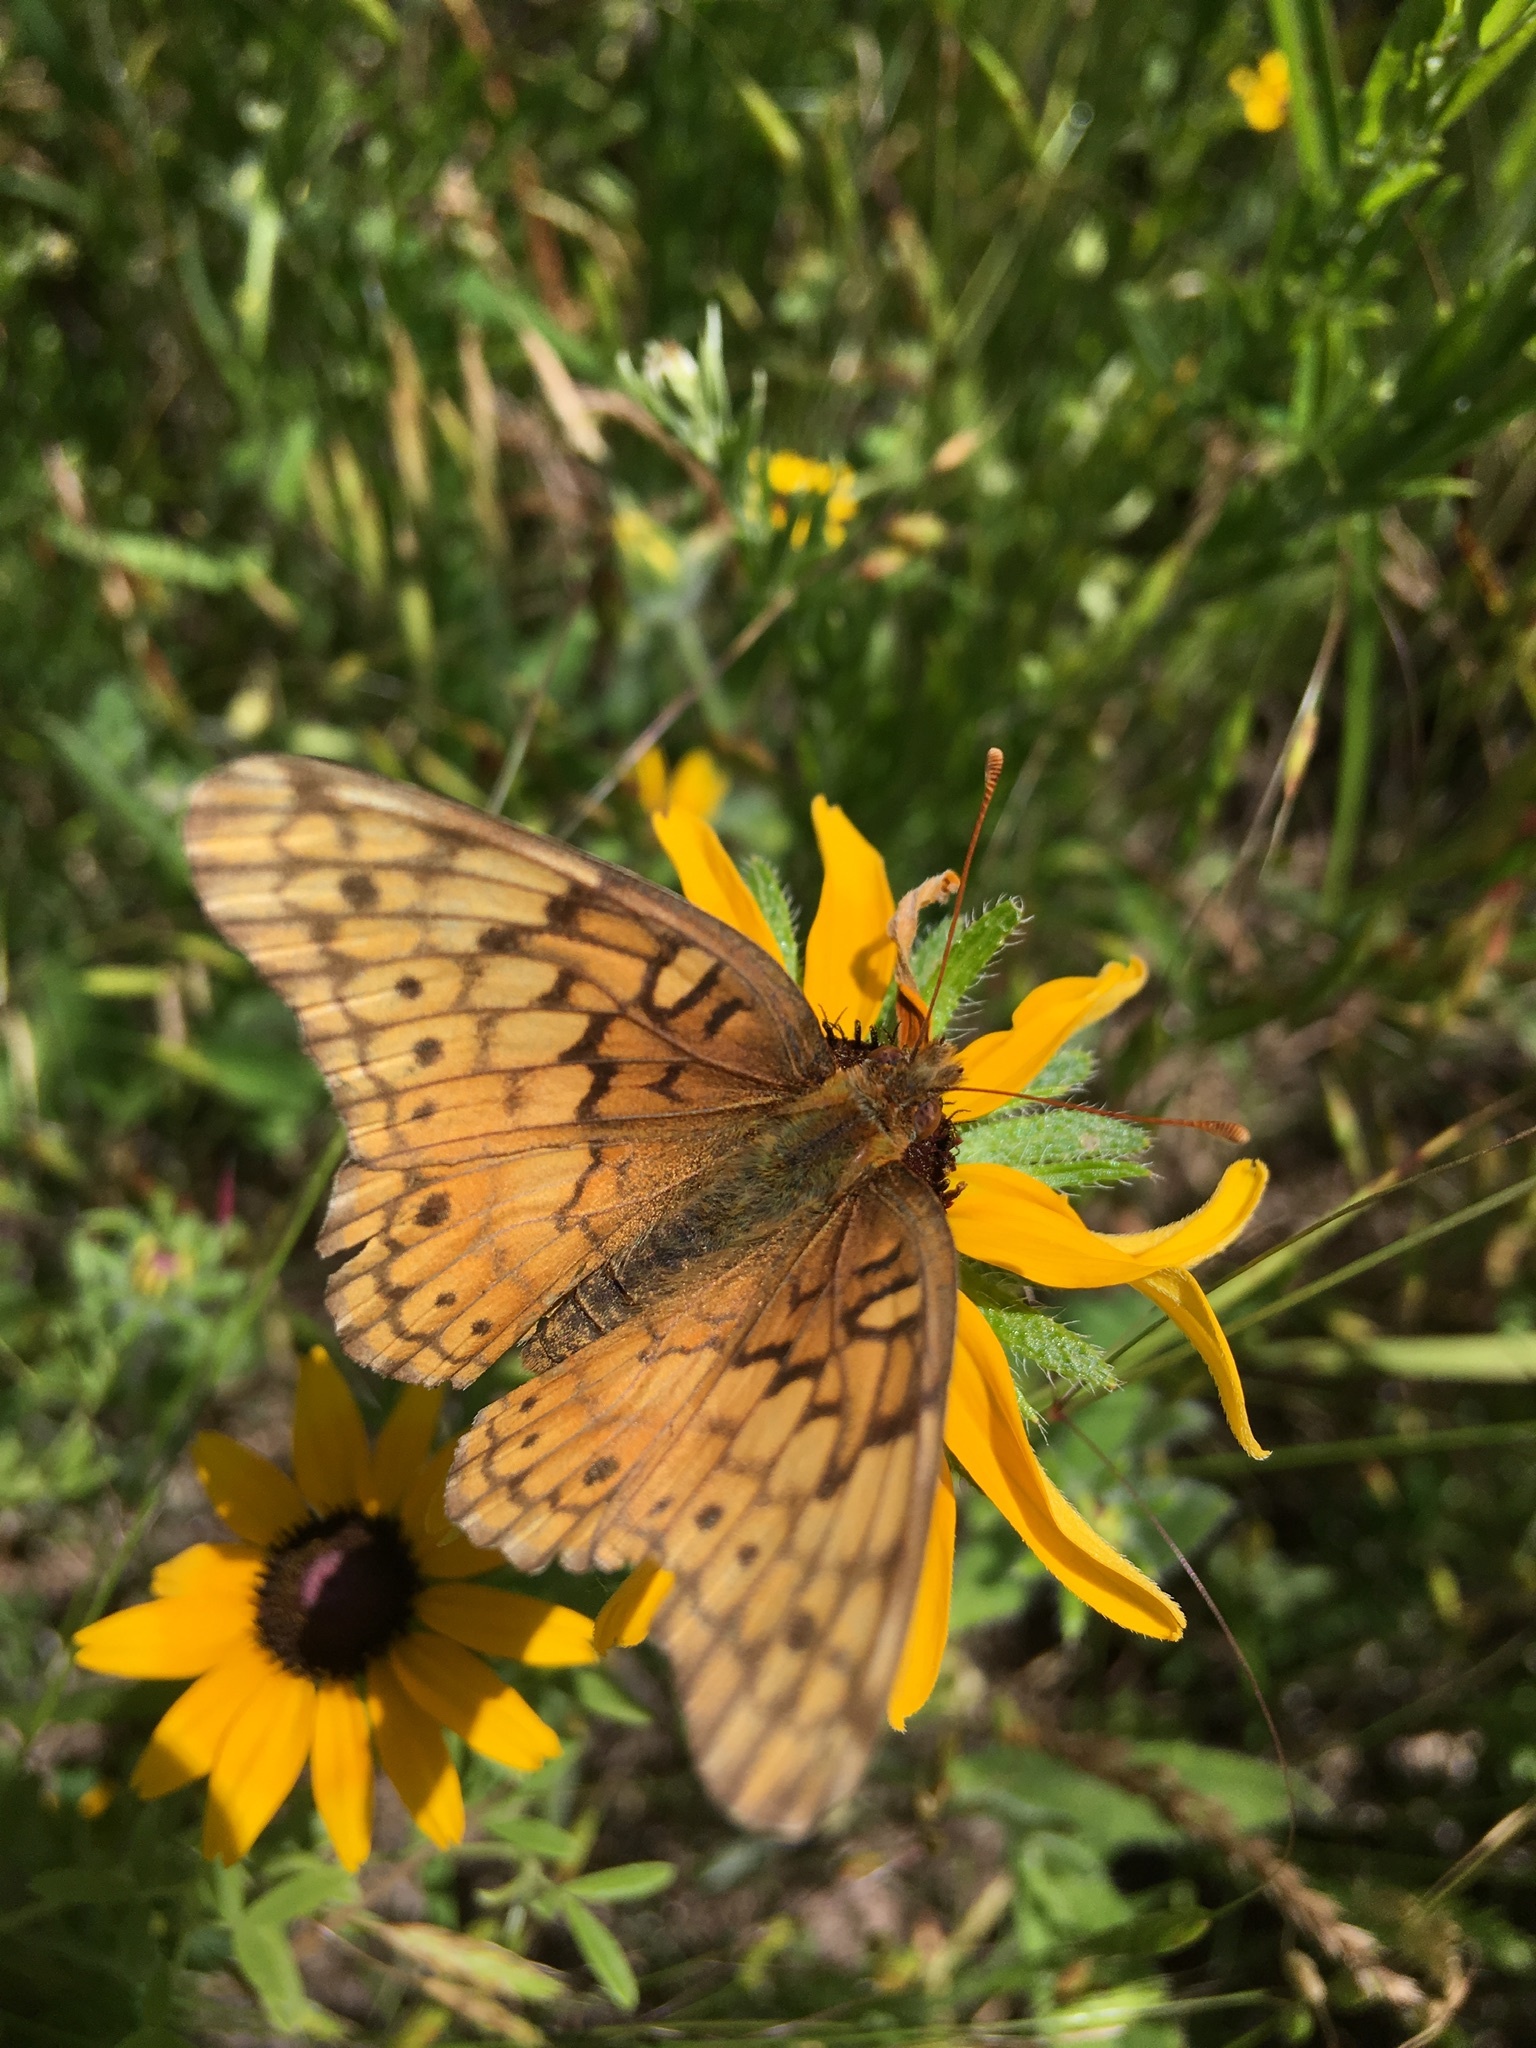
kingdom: Animalia
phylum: Arthropoda
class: Insecta
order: Lepidoptera
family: Nymphalidae
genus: Euptoieta
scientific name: Euptoieta claudia
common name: Variegated fritillary
